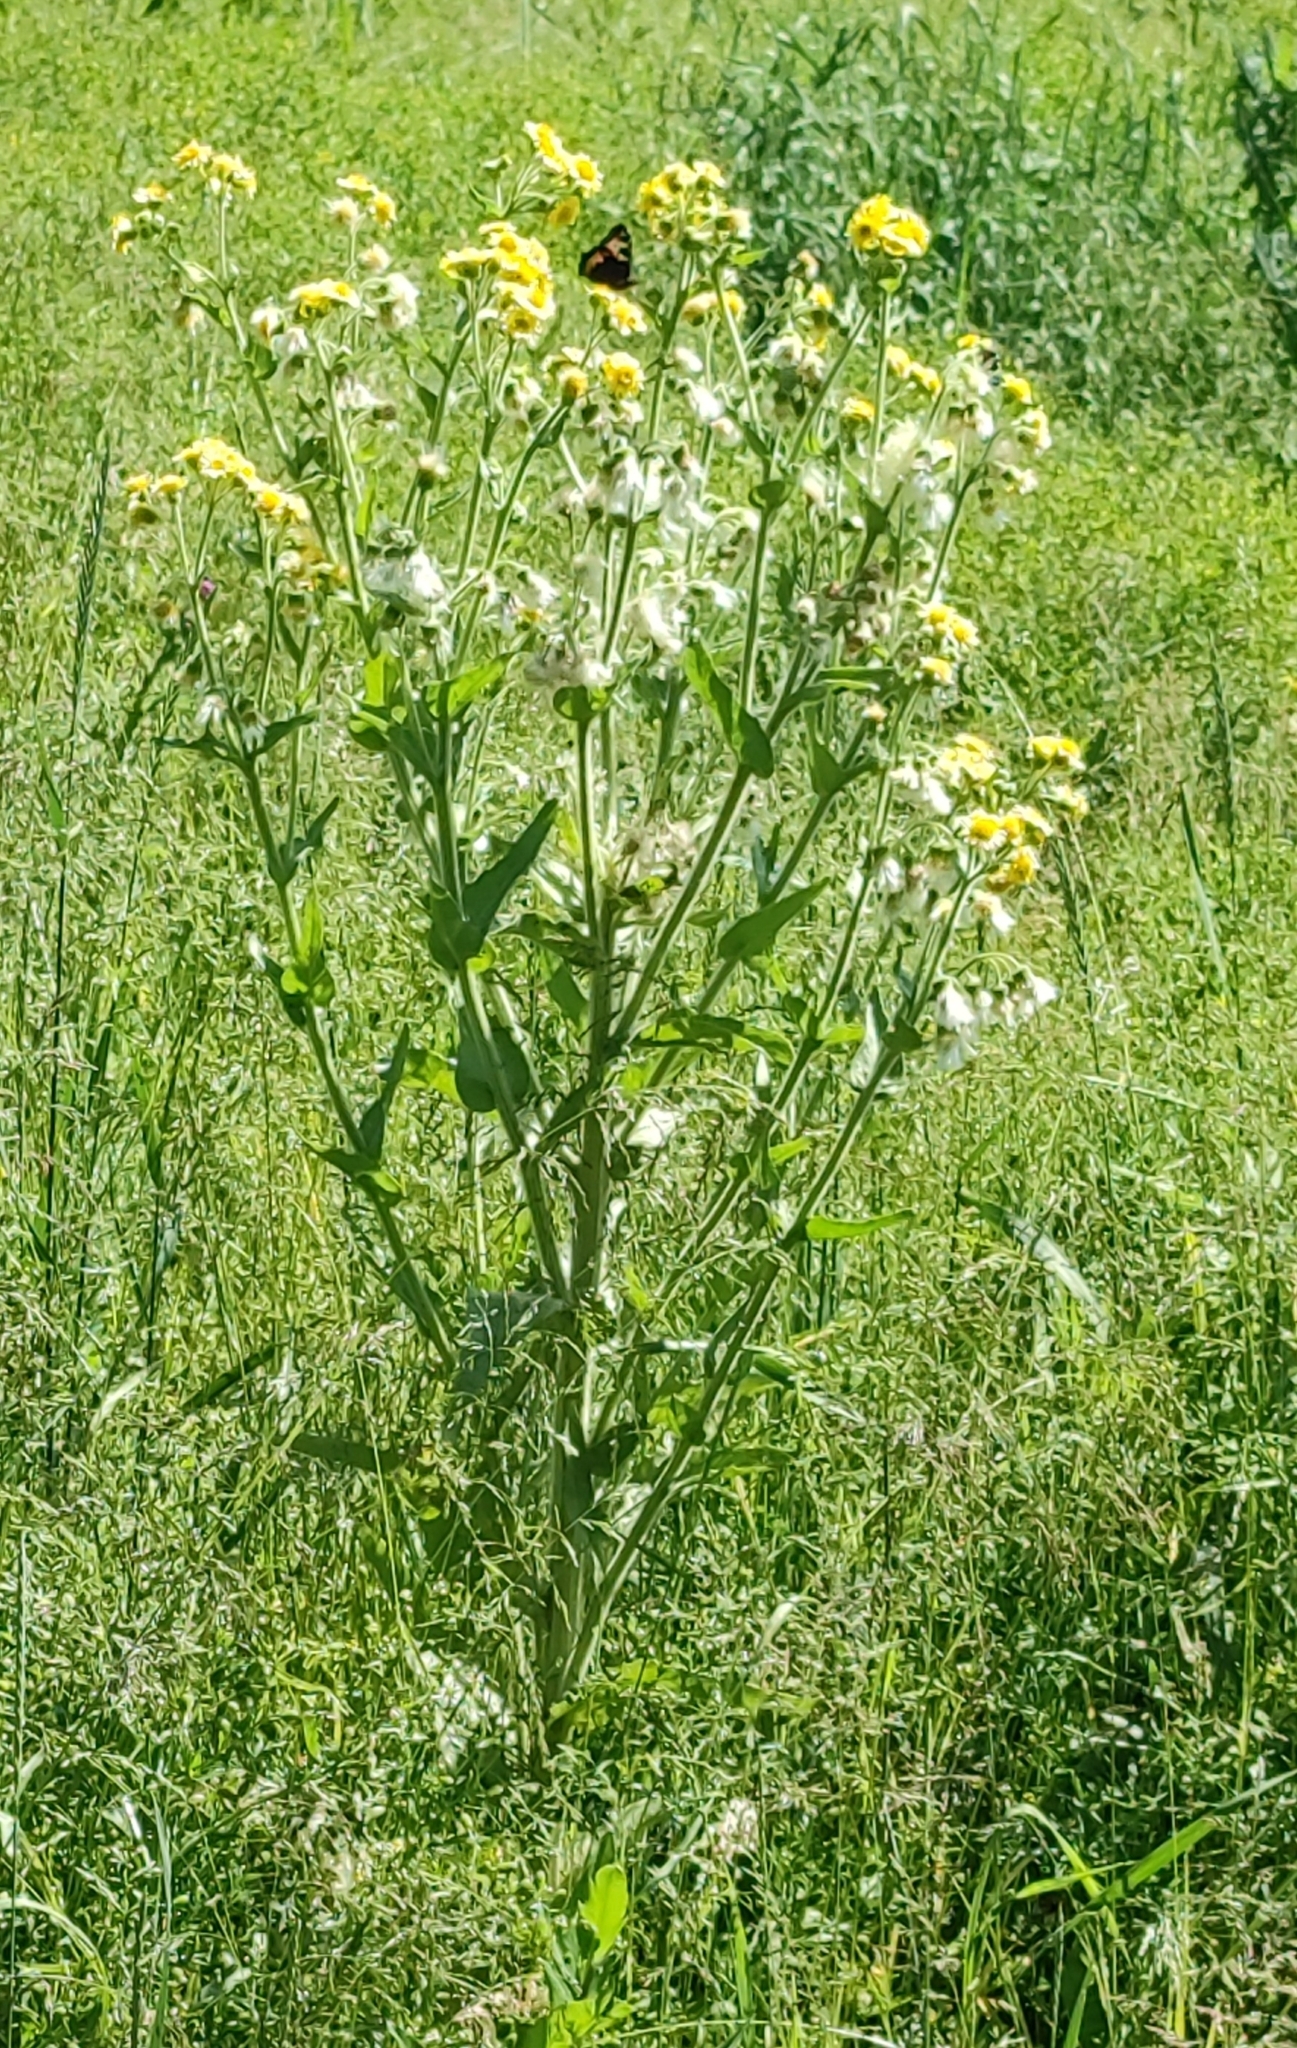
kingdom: Plantae
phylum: Tracheophyta
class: Magnoliopsida
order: Asterales
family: Asteraceae
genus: Tephroseris
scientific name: Tephroseris palustris
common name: Marsh fleawort
